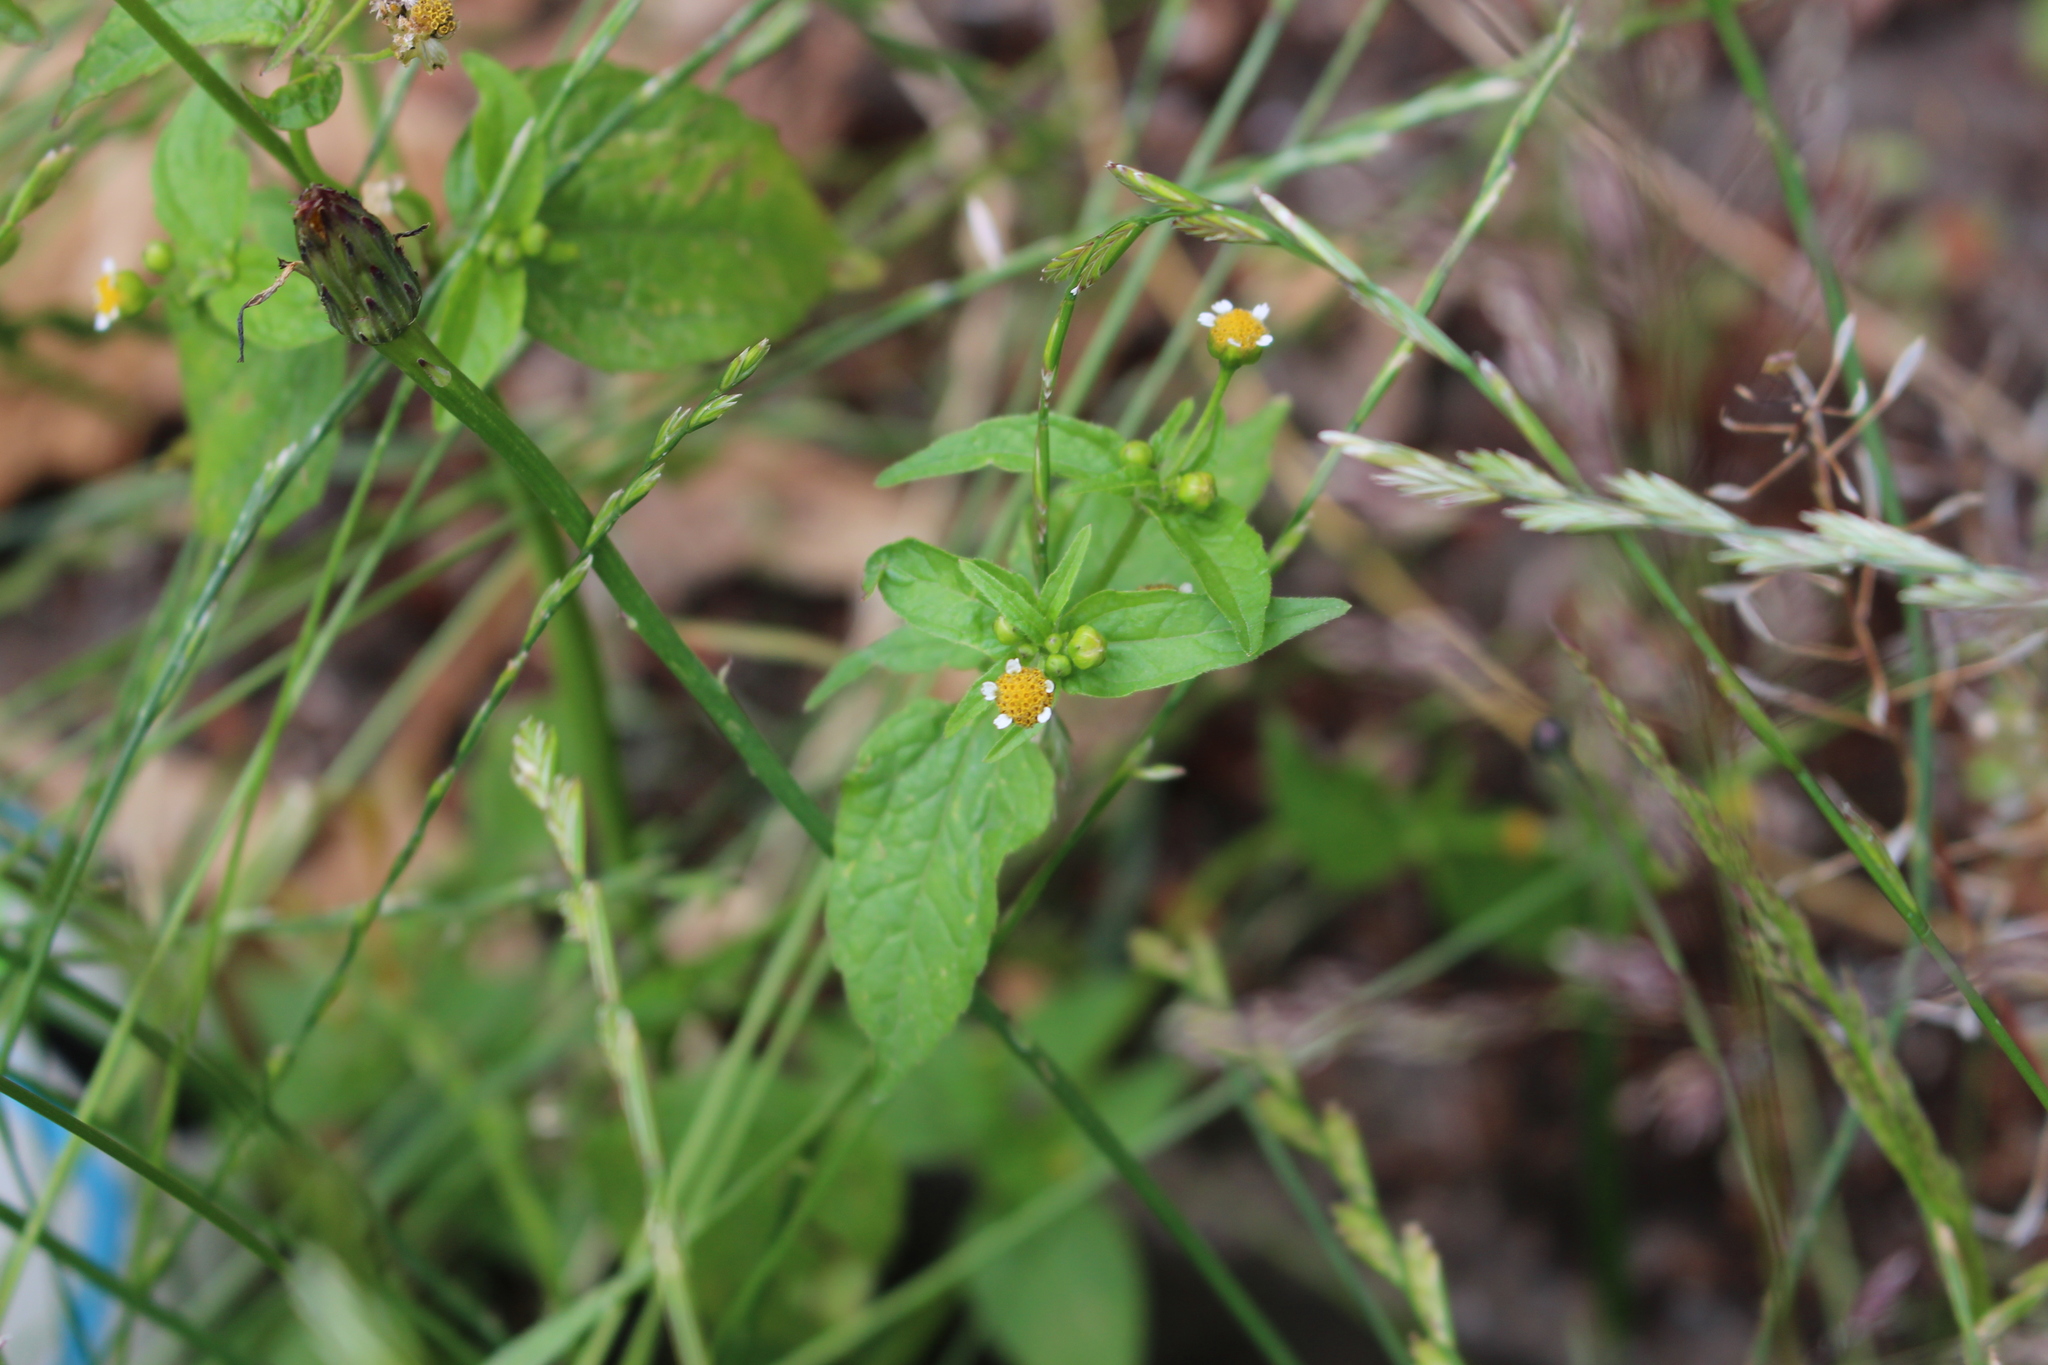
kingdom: Plantae
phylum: Tracheophyta
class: Magnoliopsida
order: Asterales
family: Asteraceae
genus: Galinsoga
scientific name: Galinsoga parviflora
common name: Gallant soldier
